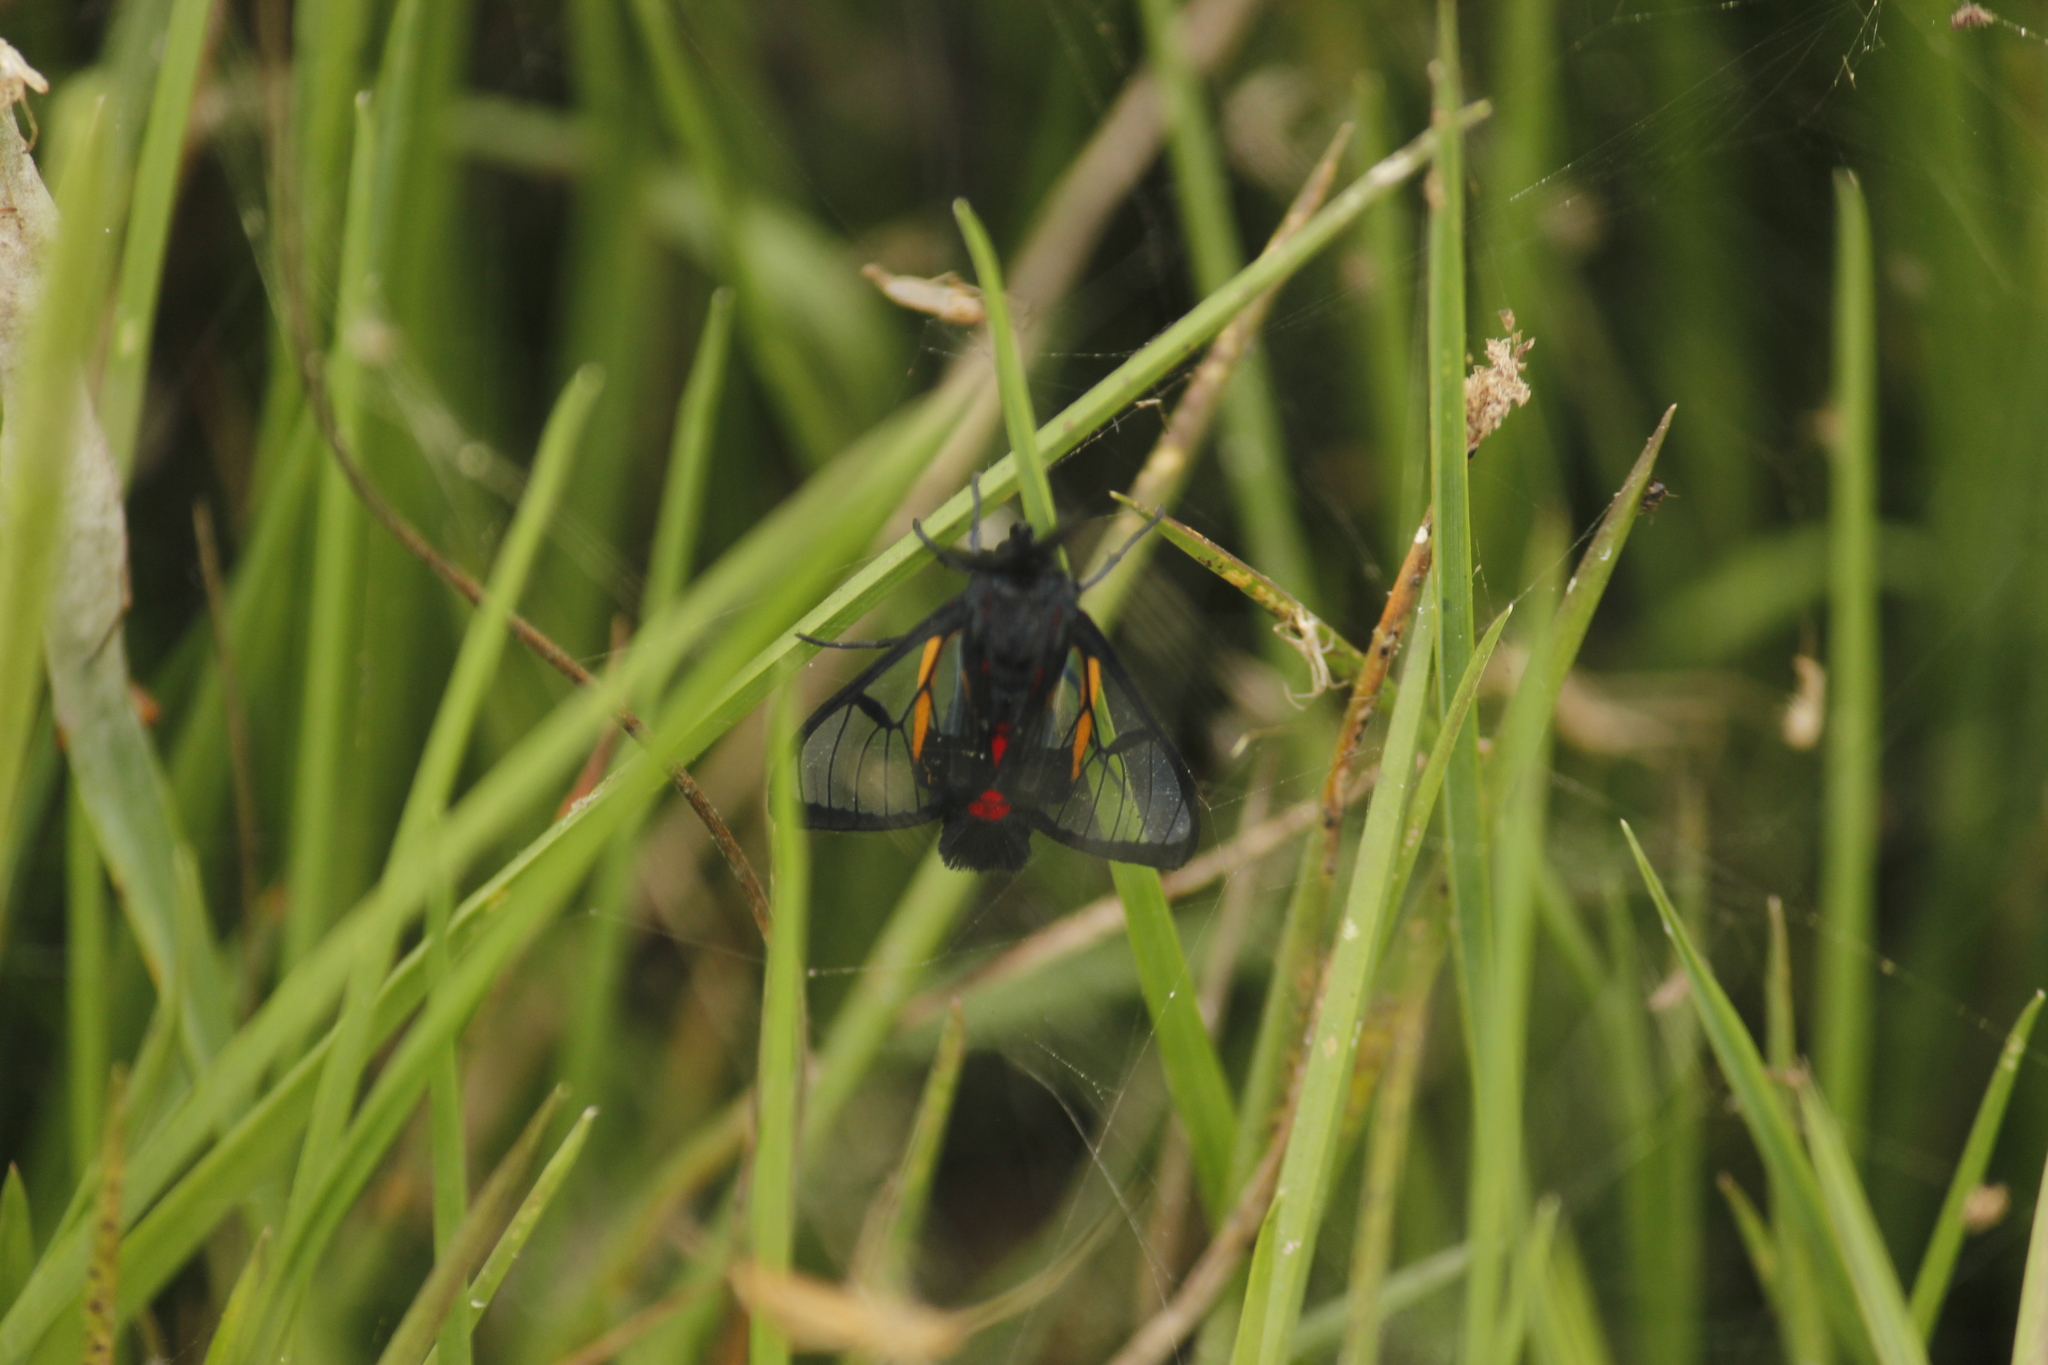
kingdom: Animalia
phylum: Arthropoda
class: Insecta
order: Lepidoptera
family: Erebidae
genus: Dinia
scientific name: Dinia subapicalis
